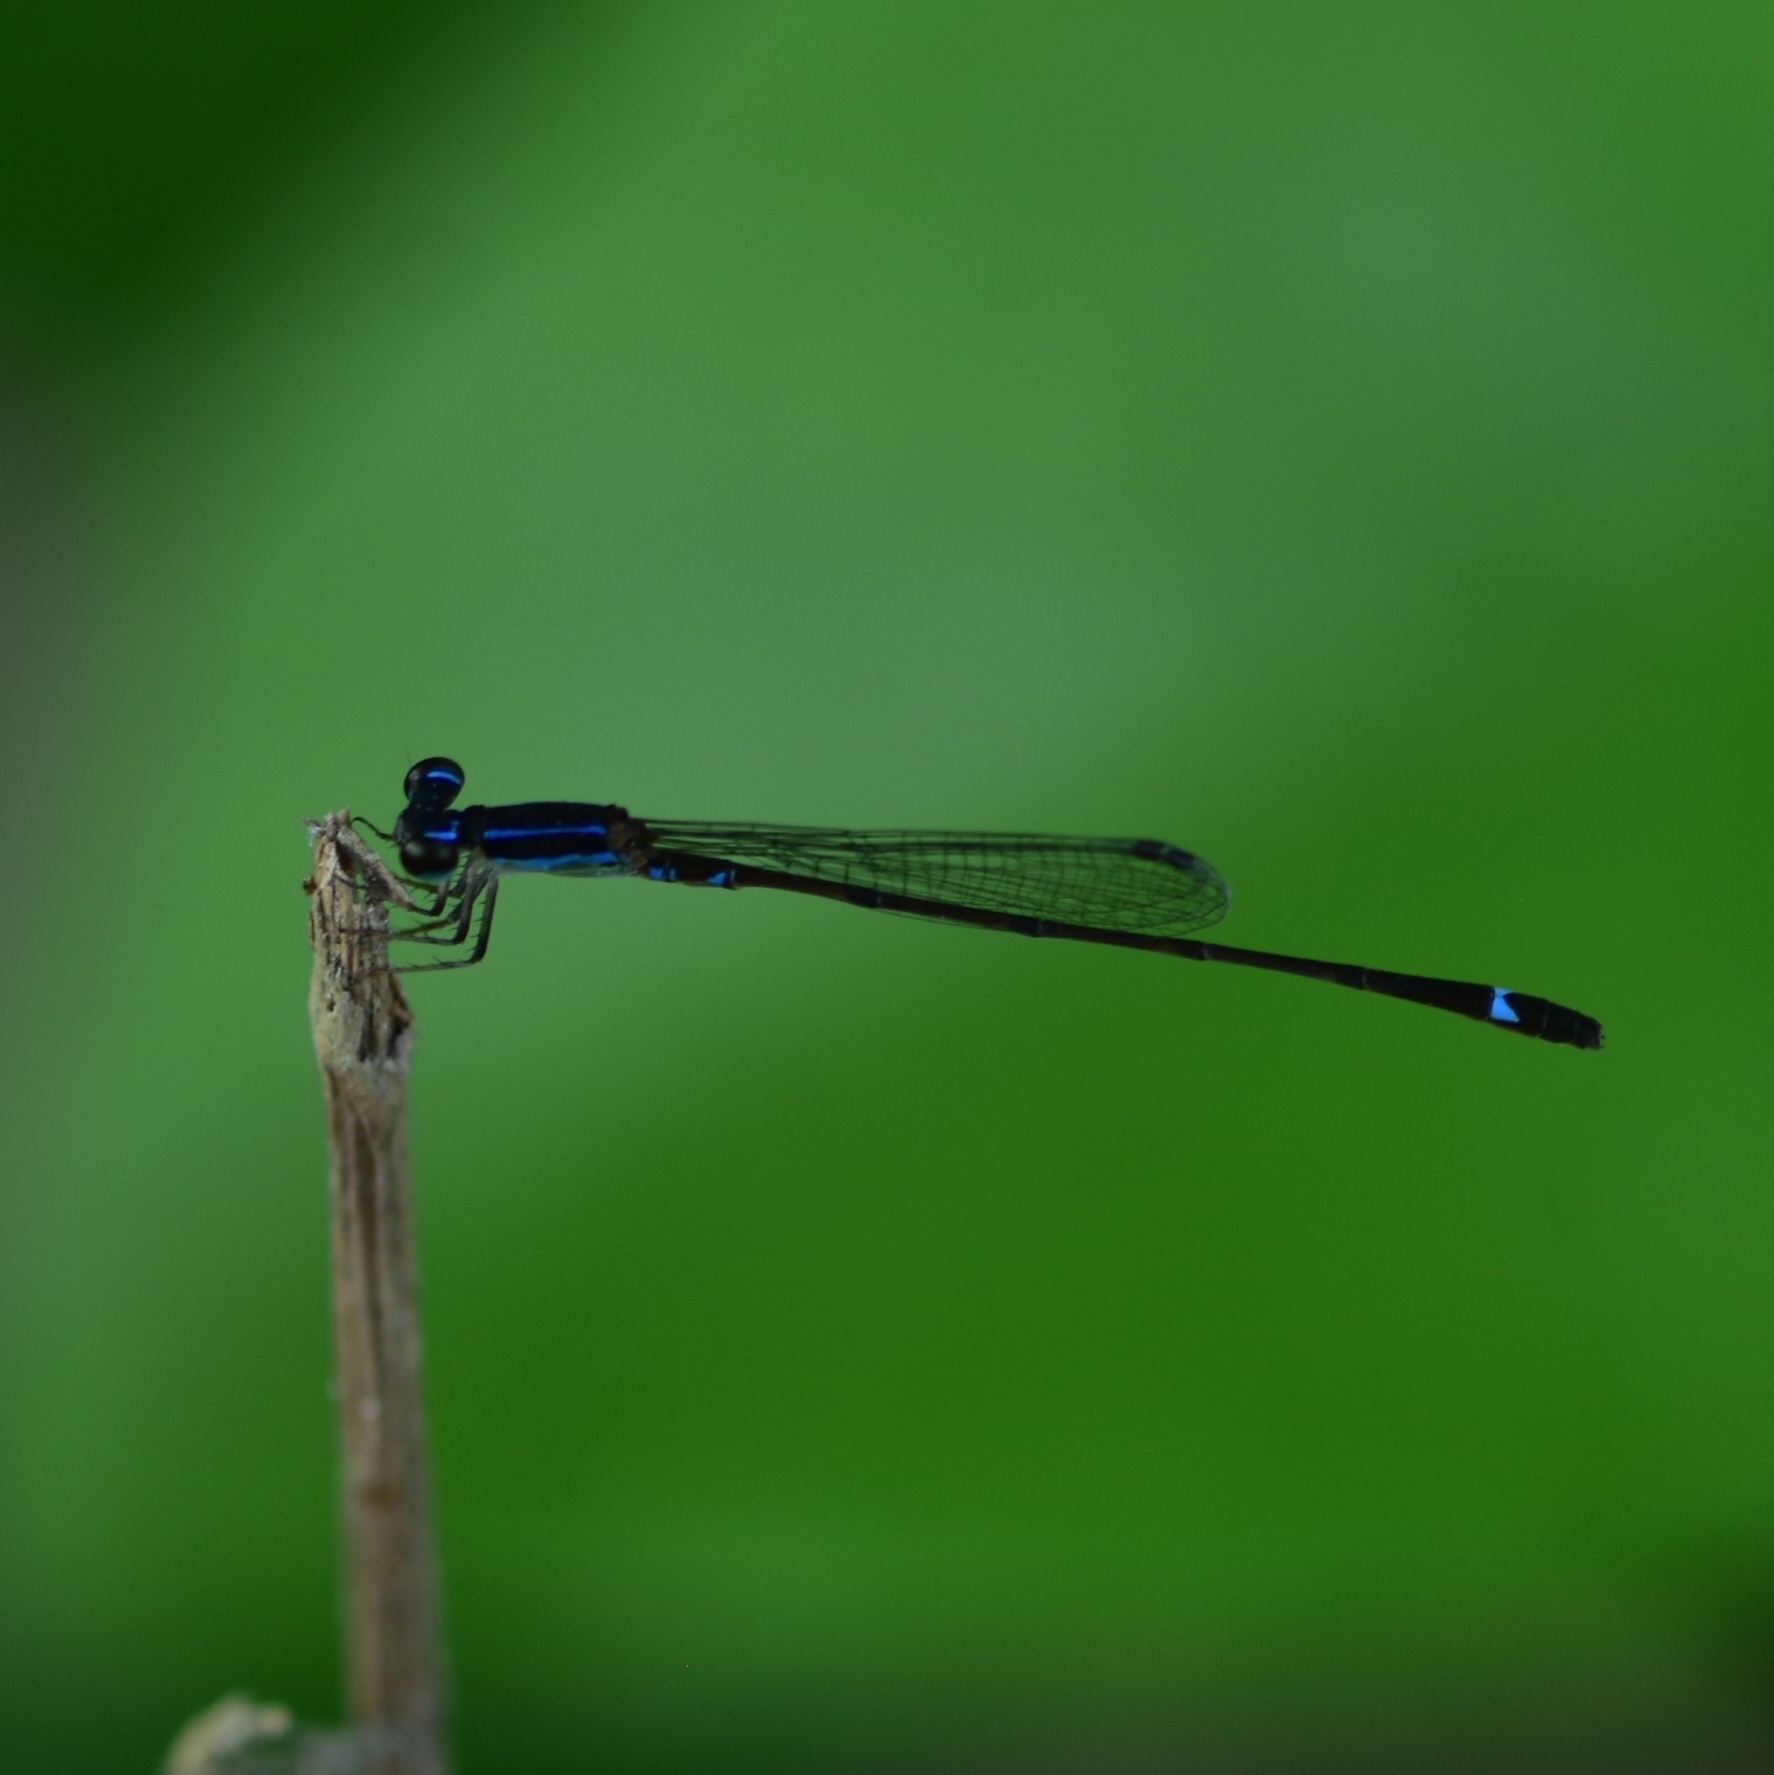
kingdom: Animalia
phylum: Arthropoda
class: Insecta
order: Odonata
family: Coenagrionidae
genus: Mortonagrion
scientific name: Mortonagrion varralli
